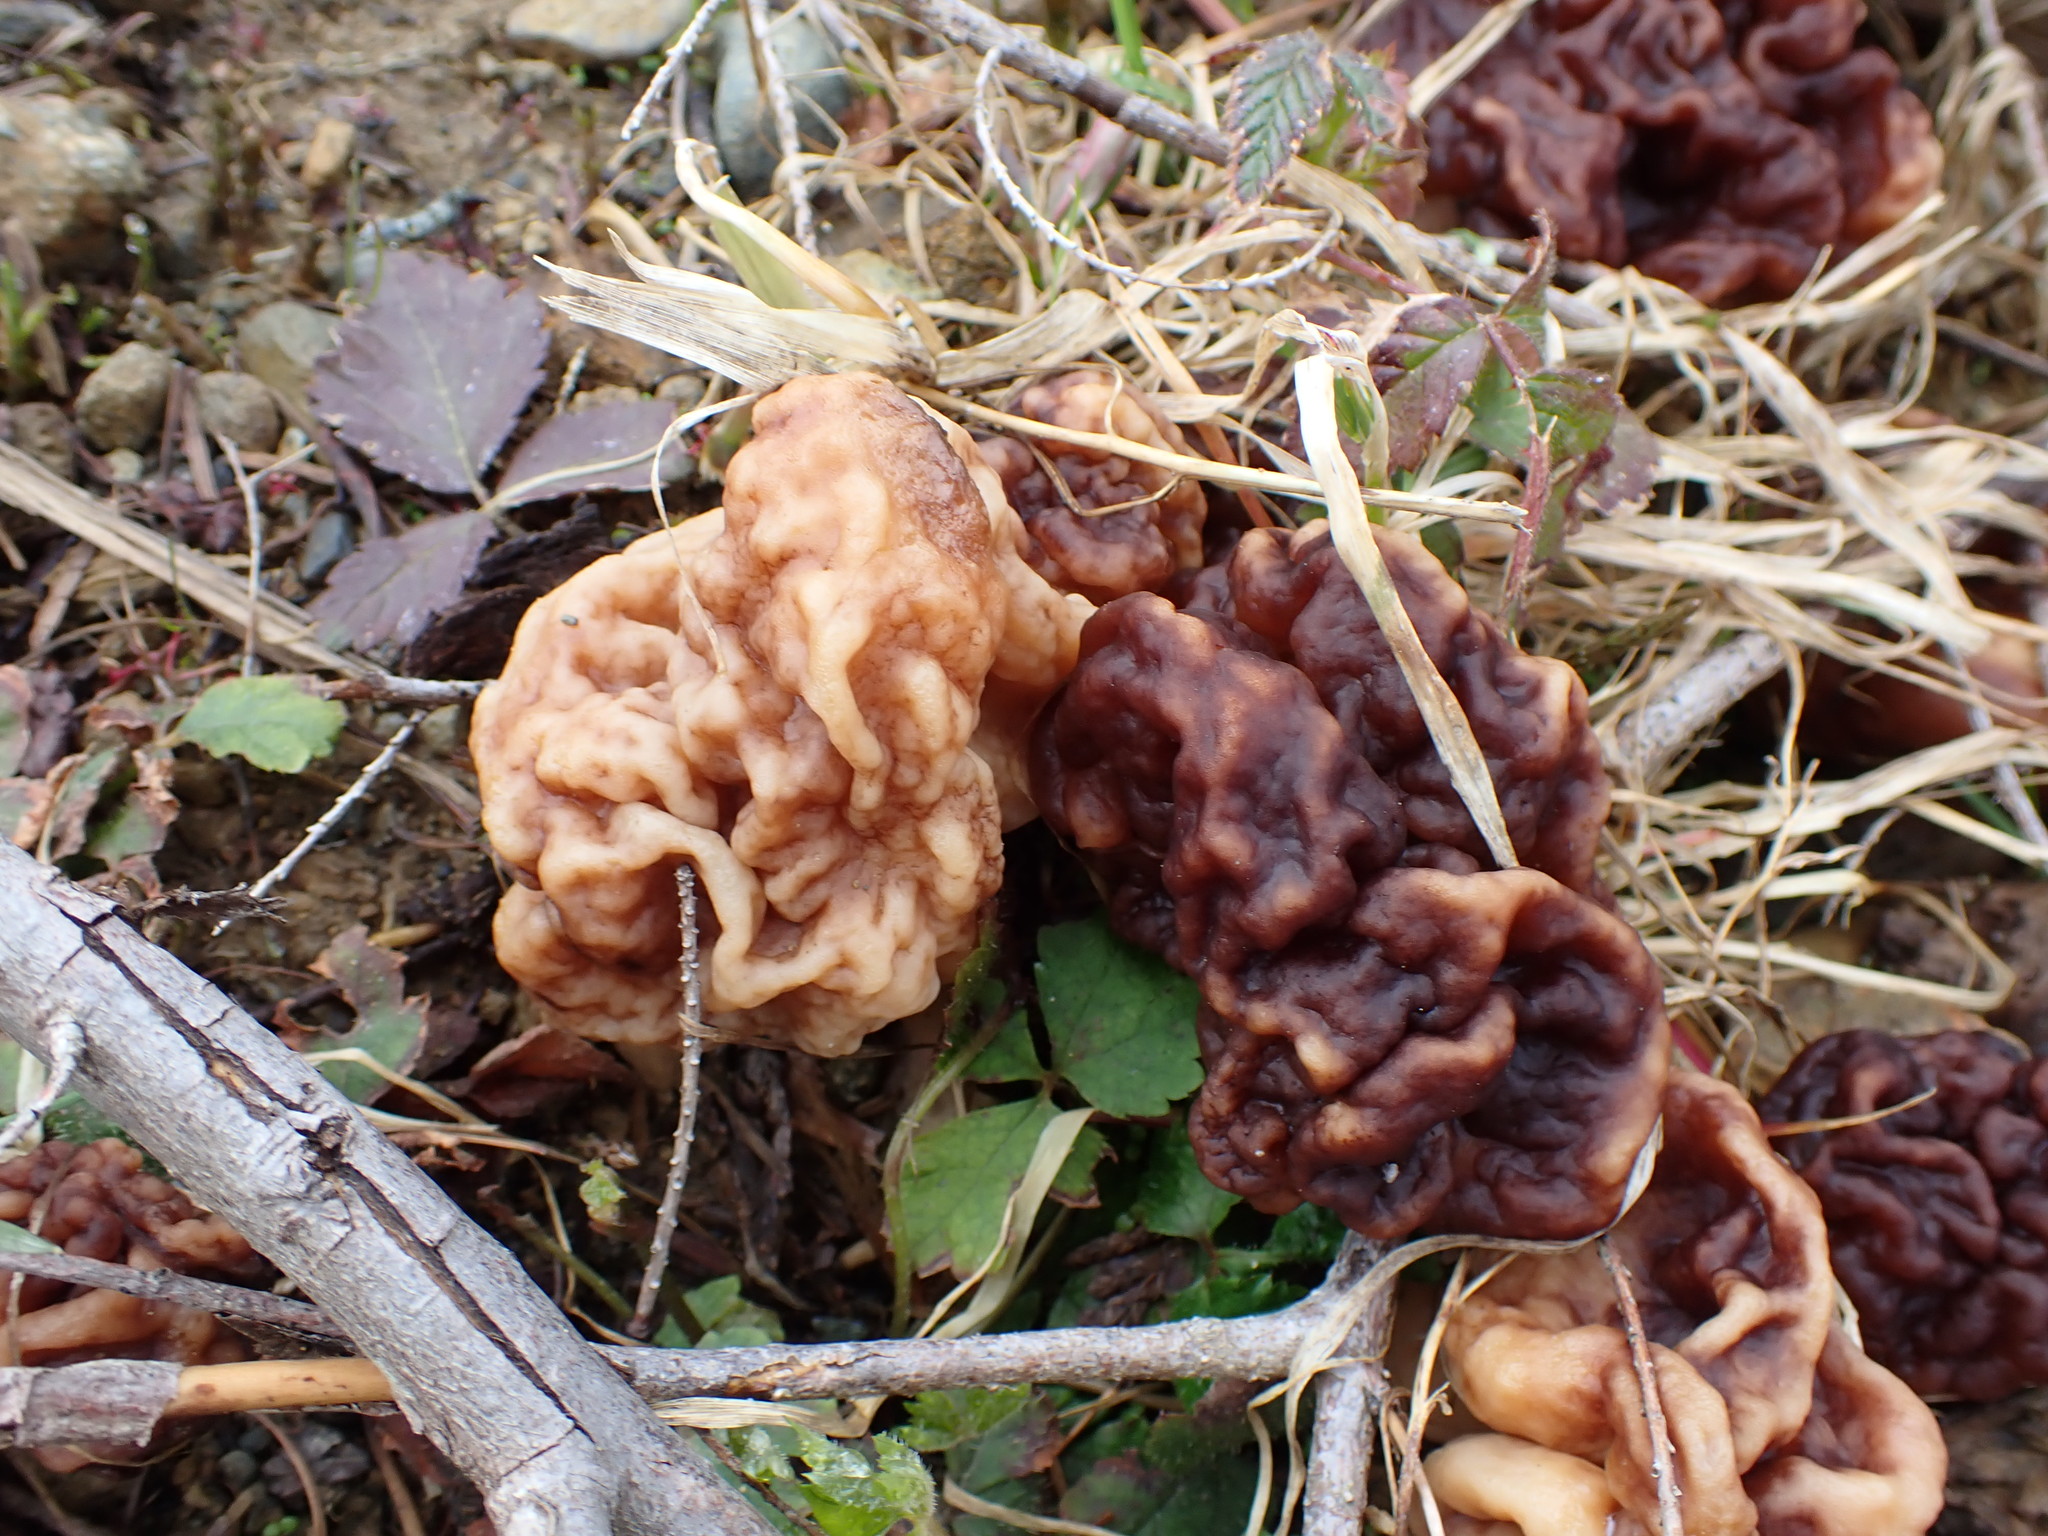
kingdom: Fungi
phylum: Ascomycota
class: Pezizomycetes
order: Pezizales
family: Discinaceae
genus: Discina
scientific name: Discina montana
